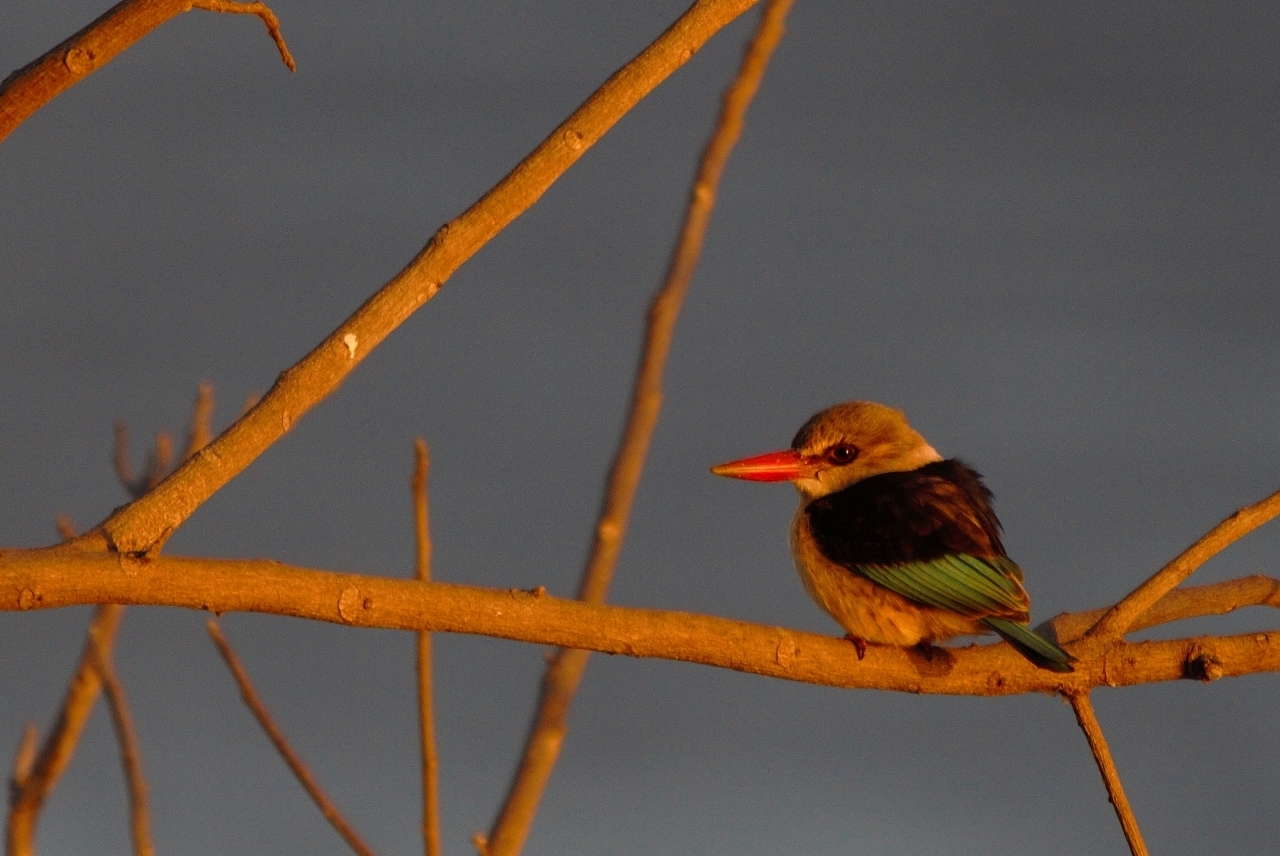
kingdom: Animalia
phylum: Chordata
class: Aves
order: Coraciiformes
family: Alcedinidae
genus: Halcyon
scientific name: Halcyon albiventris
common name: Brown-hooded kingfisher
